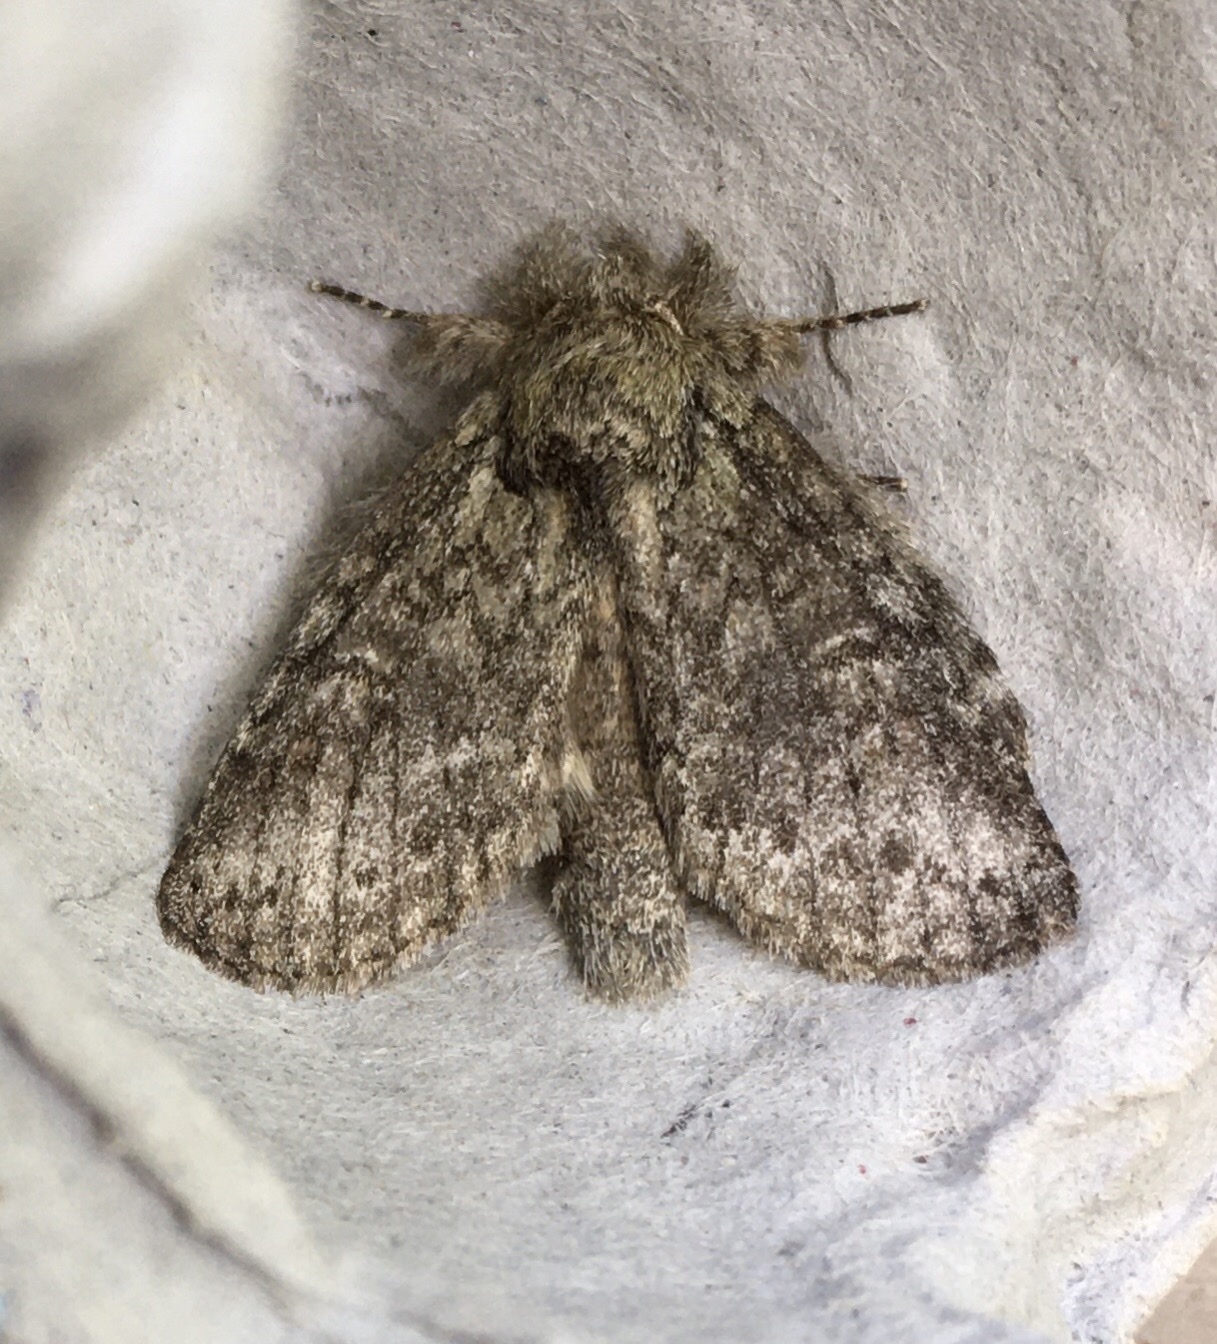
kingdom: Animalia
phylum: Arthropoda
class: Insecta
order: Lepidoptera
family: Notodontidae
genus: Disphragis
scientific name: Disphragis Cecrita guttivitta
